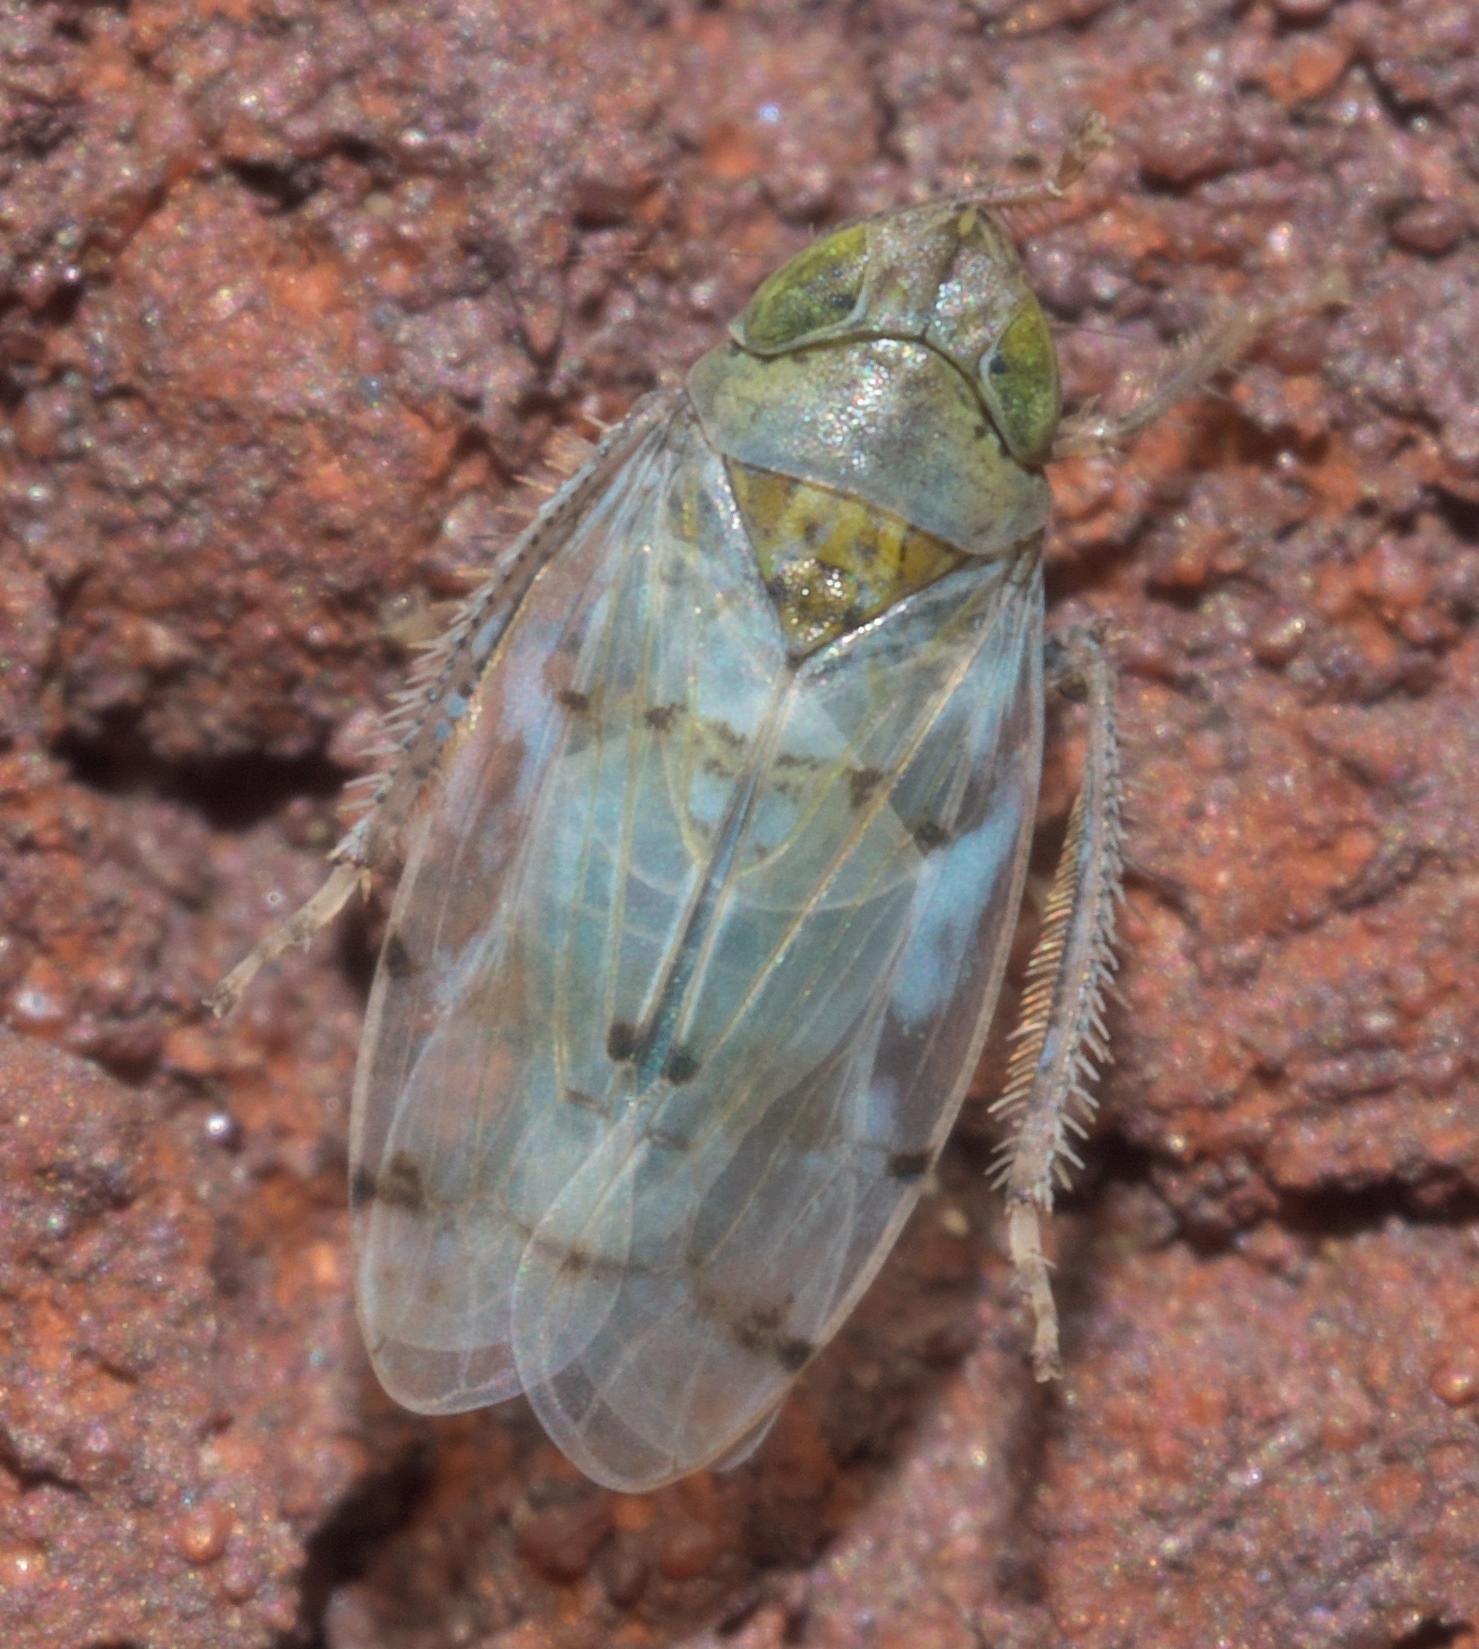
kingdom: Animalia
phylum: Arthropoda
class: Insecta
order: Hemiptera
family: Cicadellidae
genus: Japananus
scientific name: Japananus hyalinus
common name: The japanese maple leafhopper
